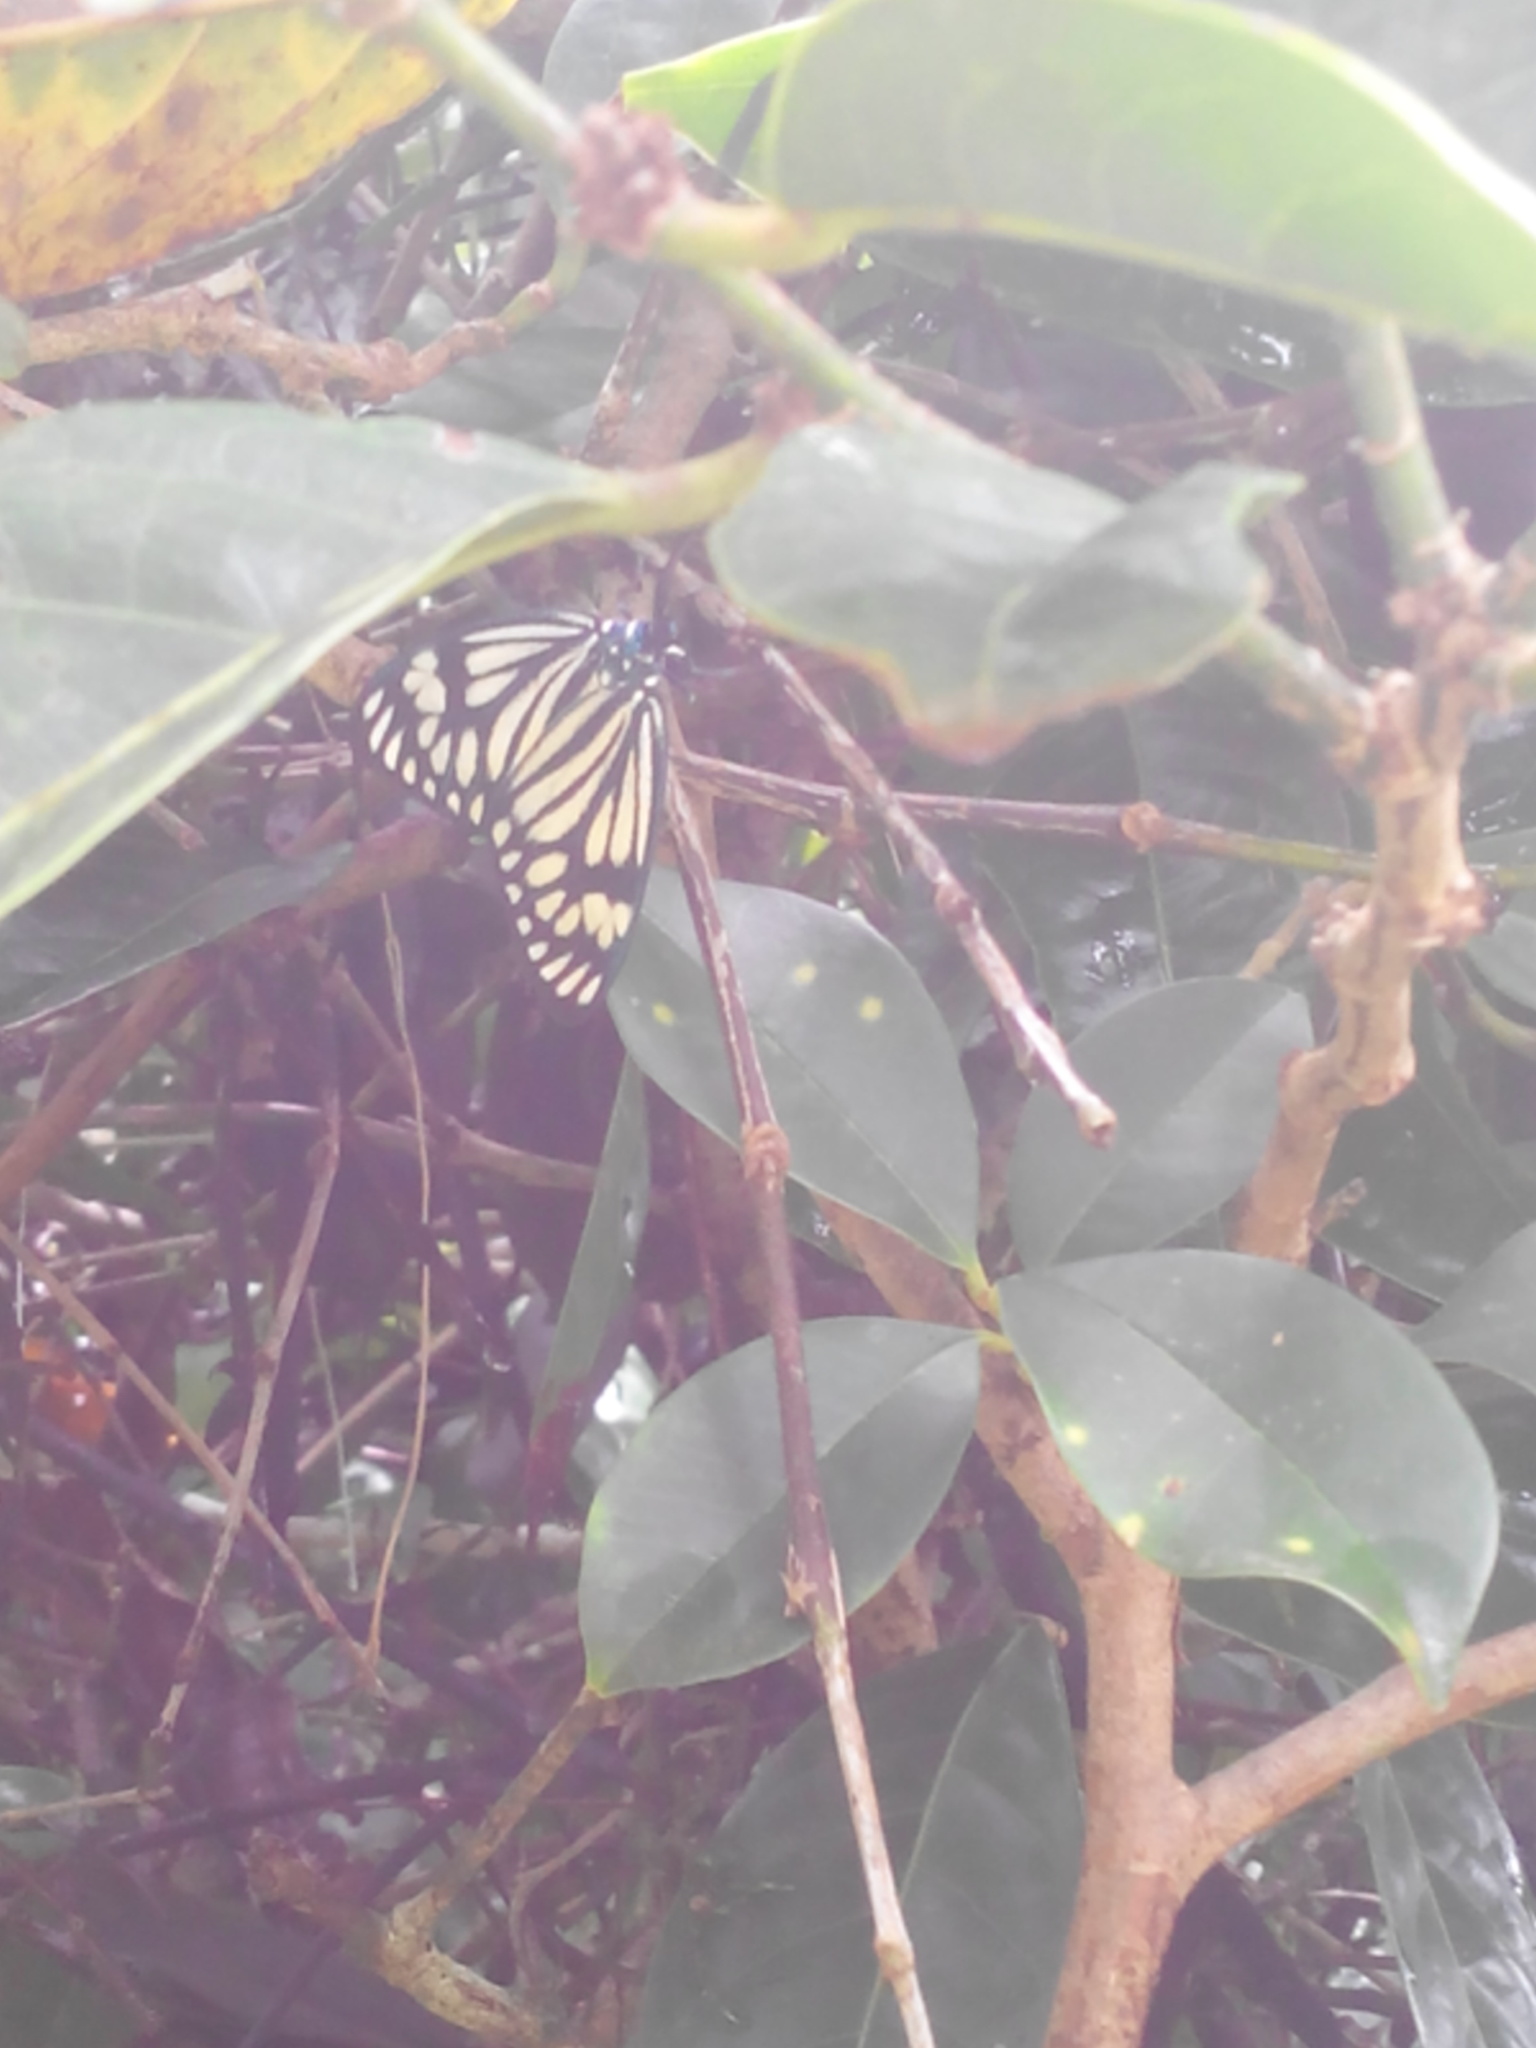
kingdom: Animalia
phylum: Arthropoda
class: Insecta
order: Lepidoptera
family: Zygaenidae
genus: Cyclosia
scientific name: Cyclosia
